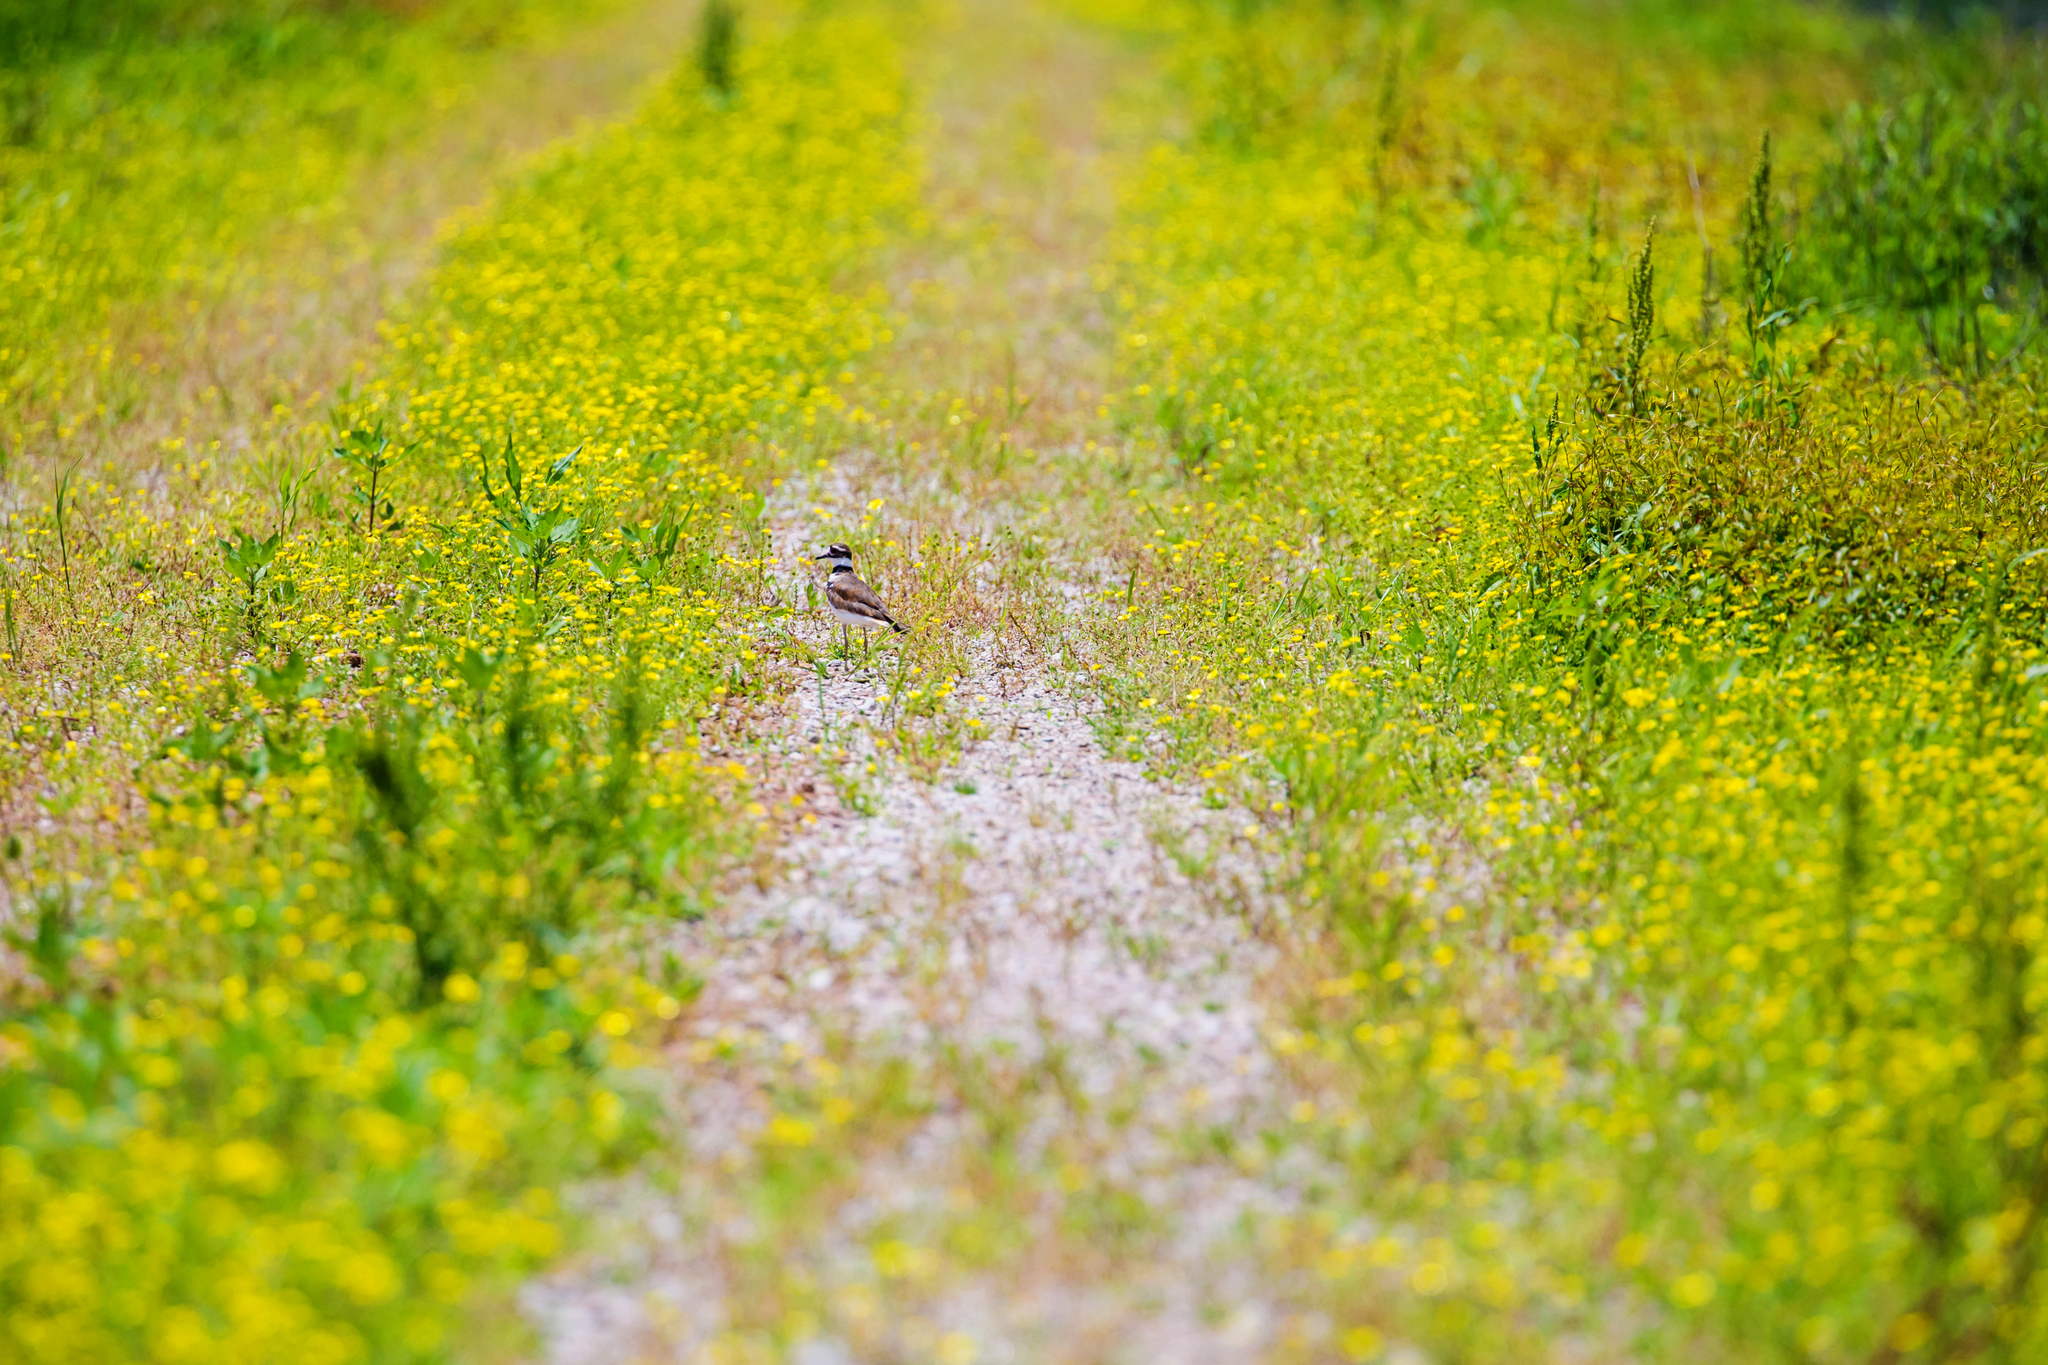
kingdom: Animalia
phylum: Chordata
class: Aves
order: Charadriiformes
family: Charadriidae
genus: Charadrius
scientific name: Charadrius vociferus
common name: Killdeer
